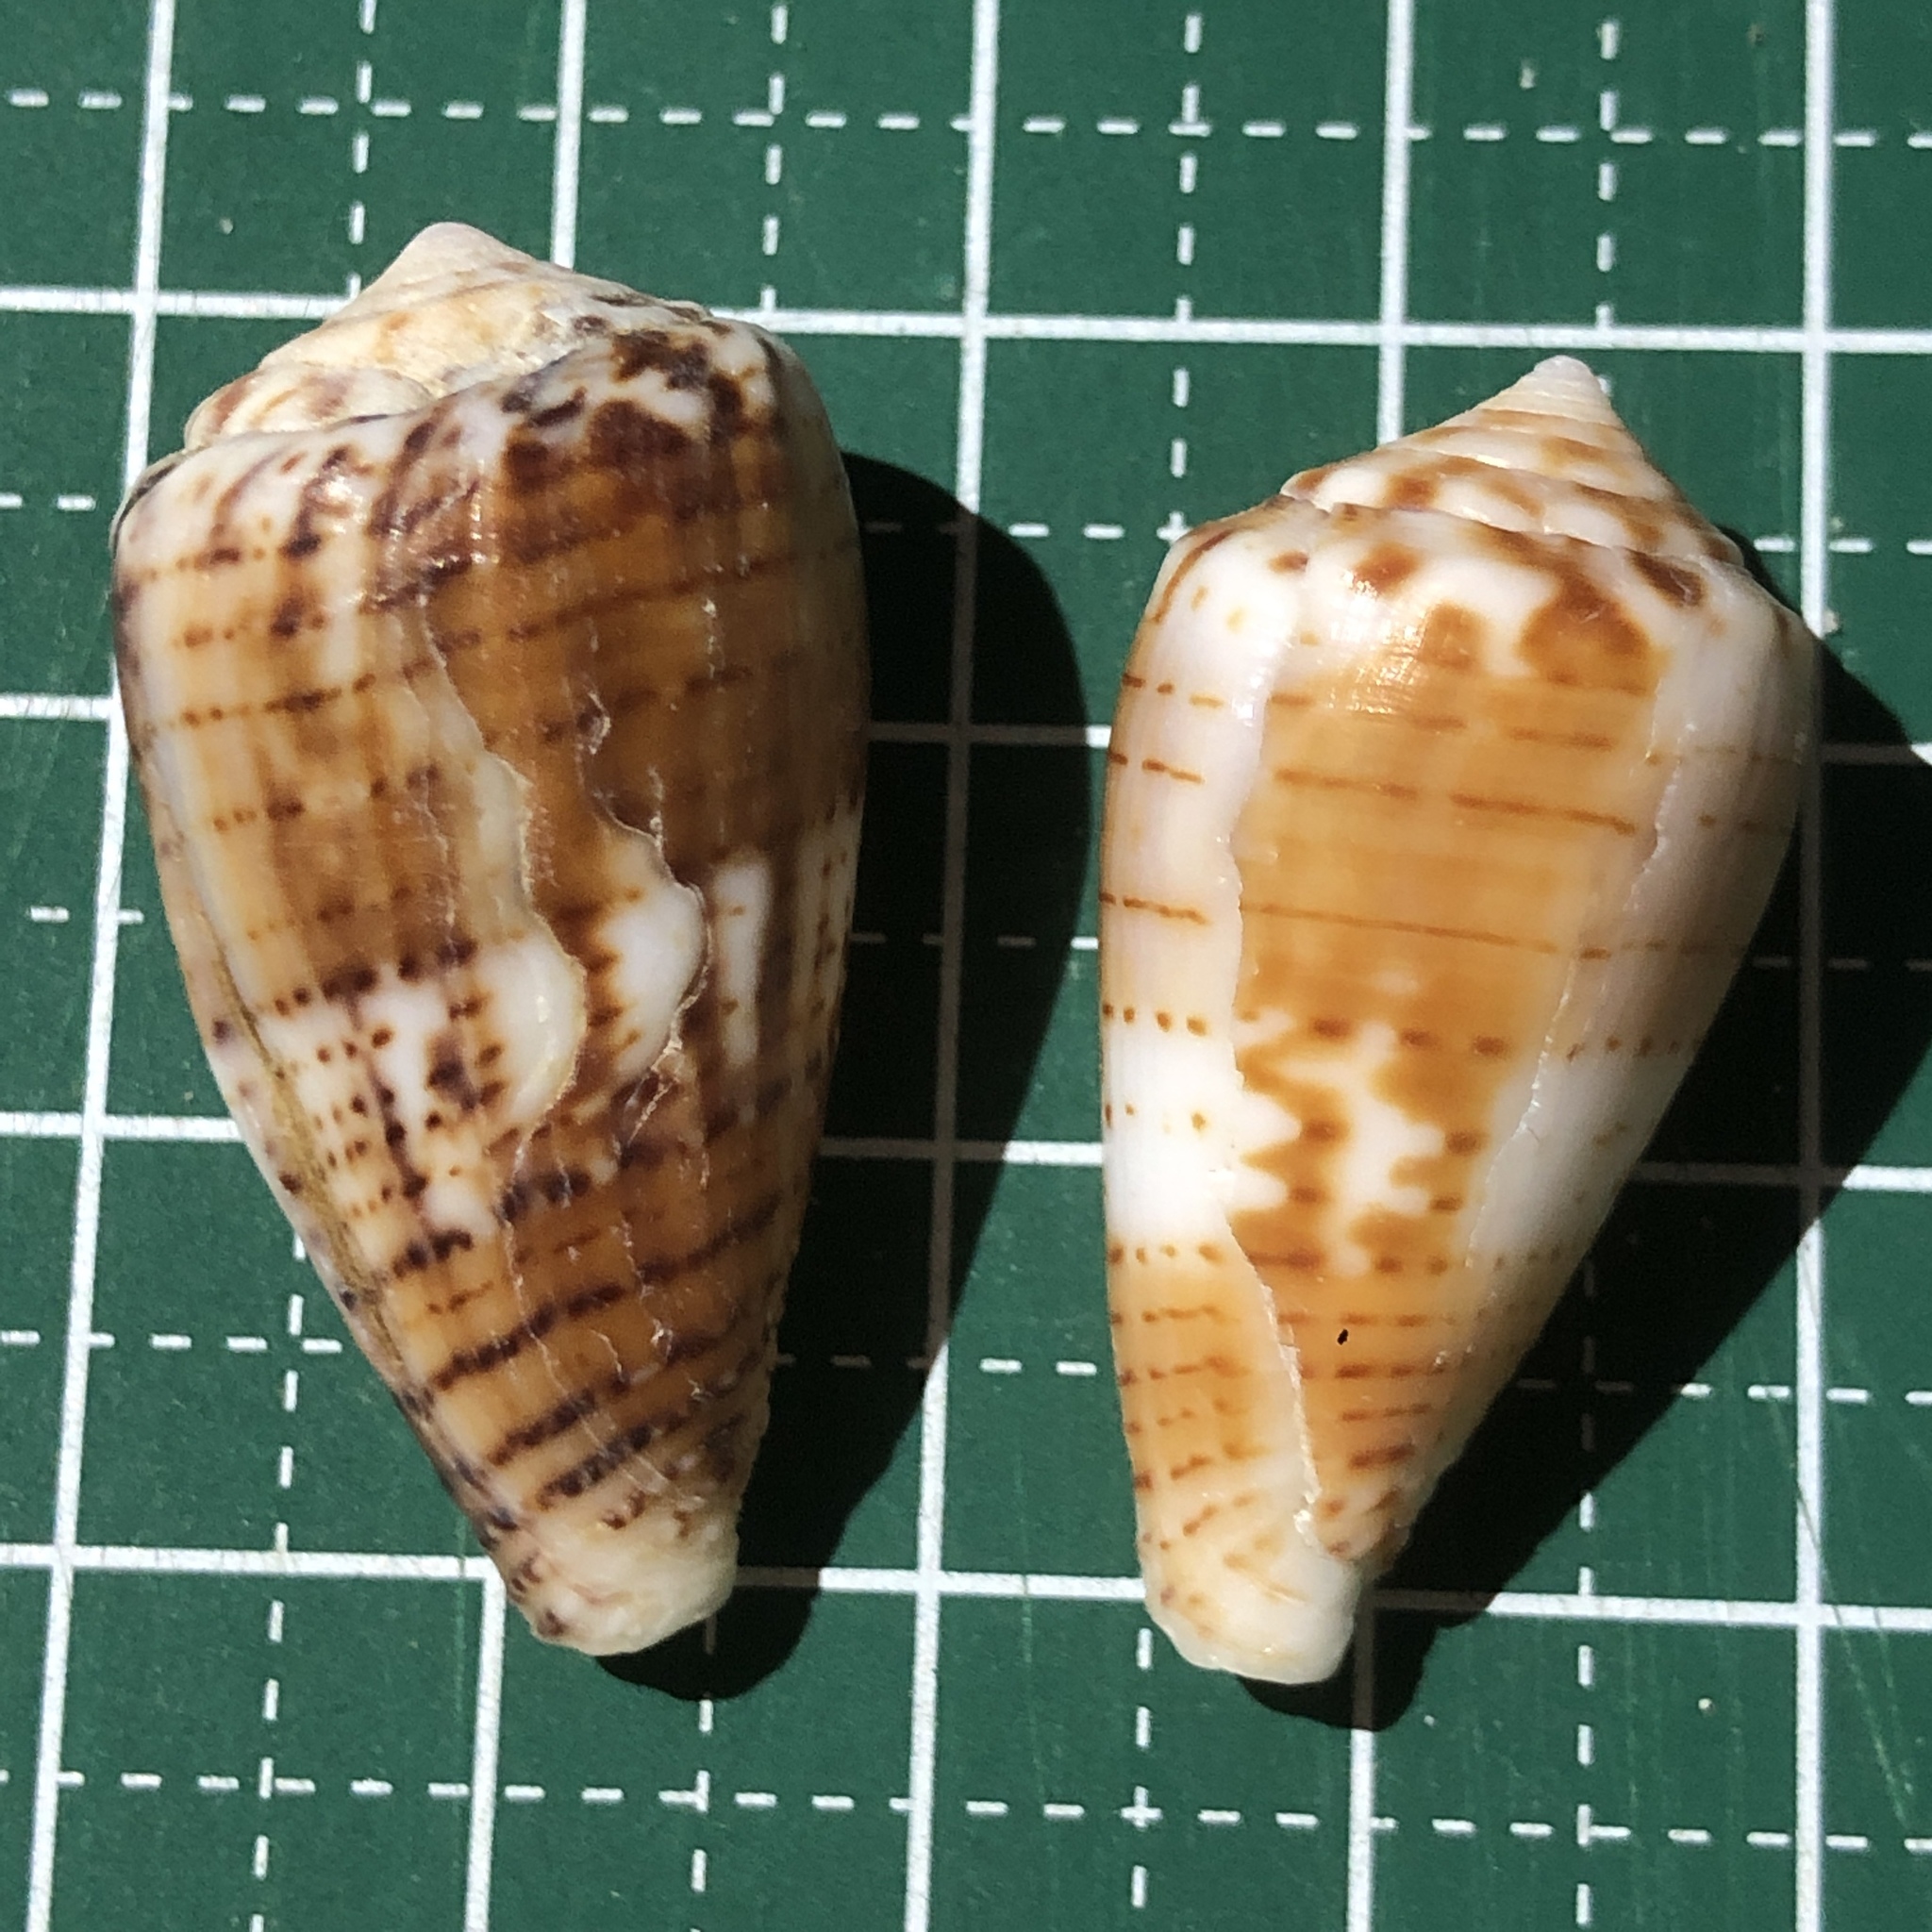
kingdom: Animalia
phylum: Mollusca
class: Gastropoda
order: Neogastropoda
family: Conidae
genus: Conus
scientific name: Conus boeticus
